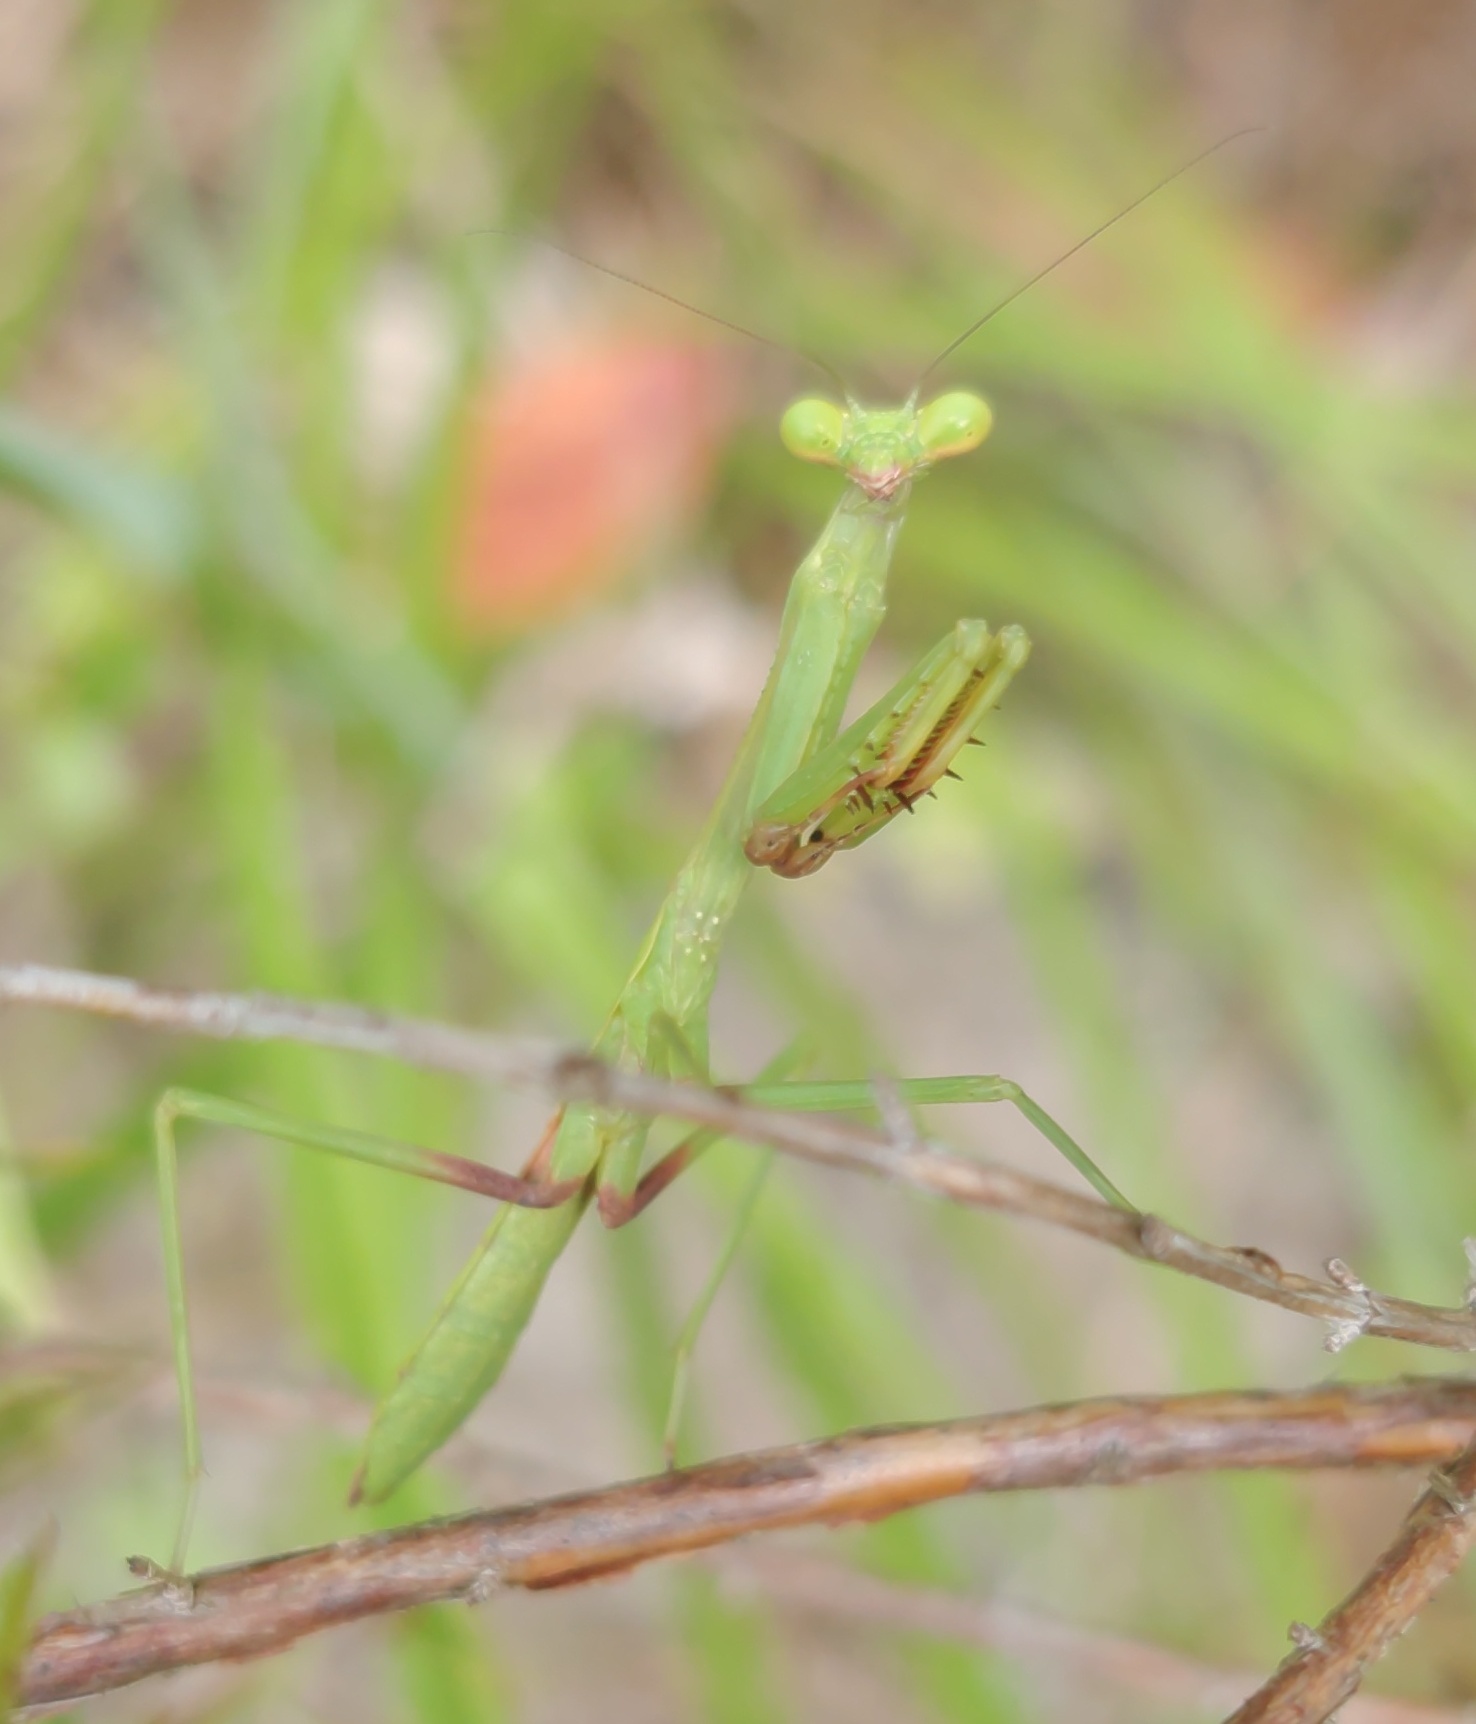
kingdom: Animalia
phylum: Arthropoda
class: Insecta
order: Mantodea
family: Mantidae
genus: Stagmomantis
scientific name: Stagmomantis floridensis
